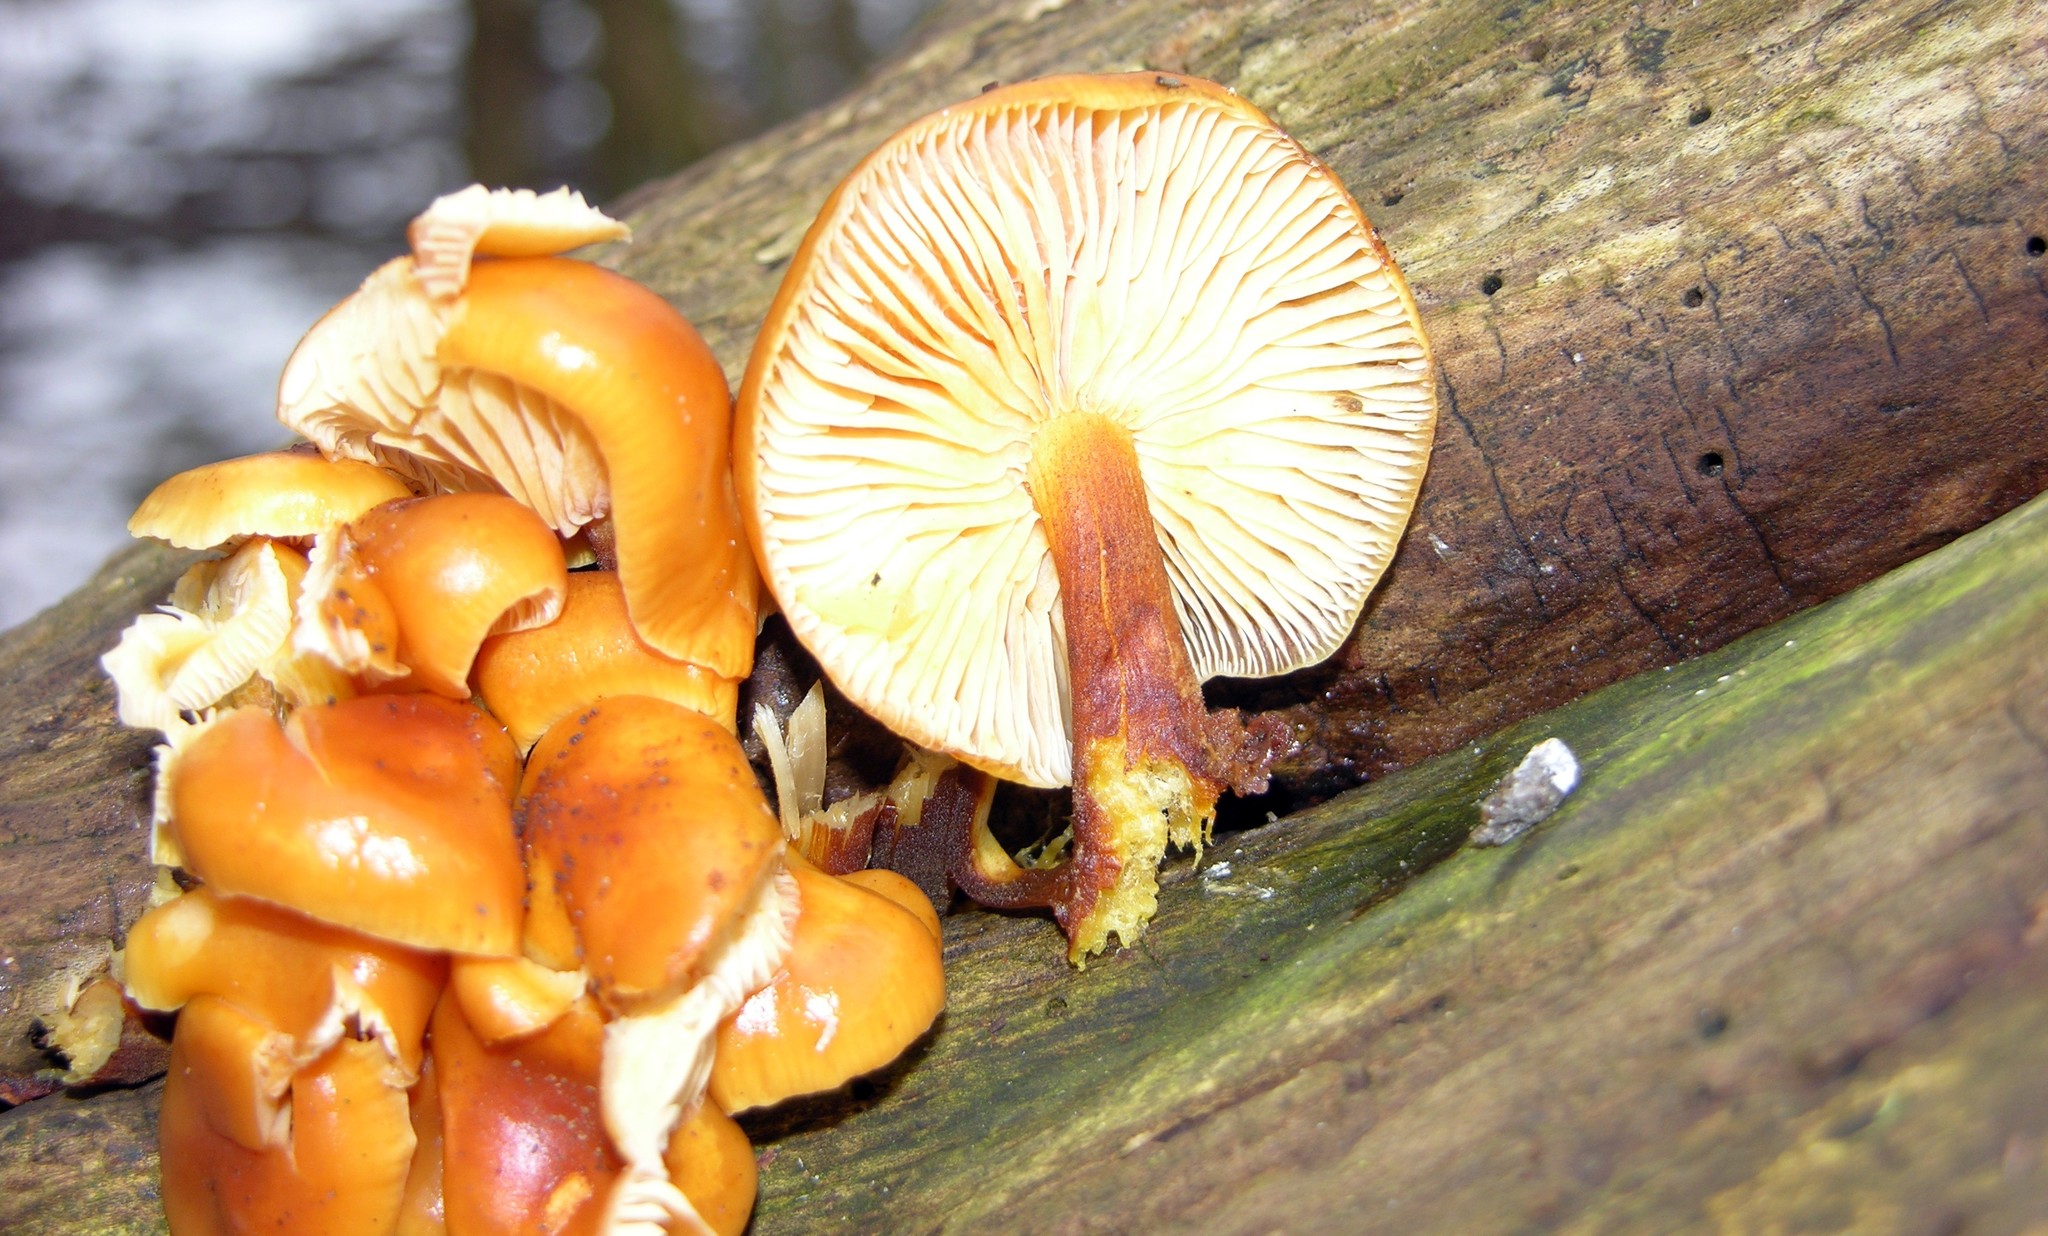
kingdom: Fungi
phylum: Basidiomycota
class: Agaricomycetes
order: Agaricales
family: Physalacriaceae
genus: Flammulina
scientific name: Flammulina
